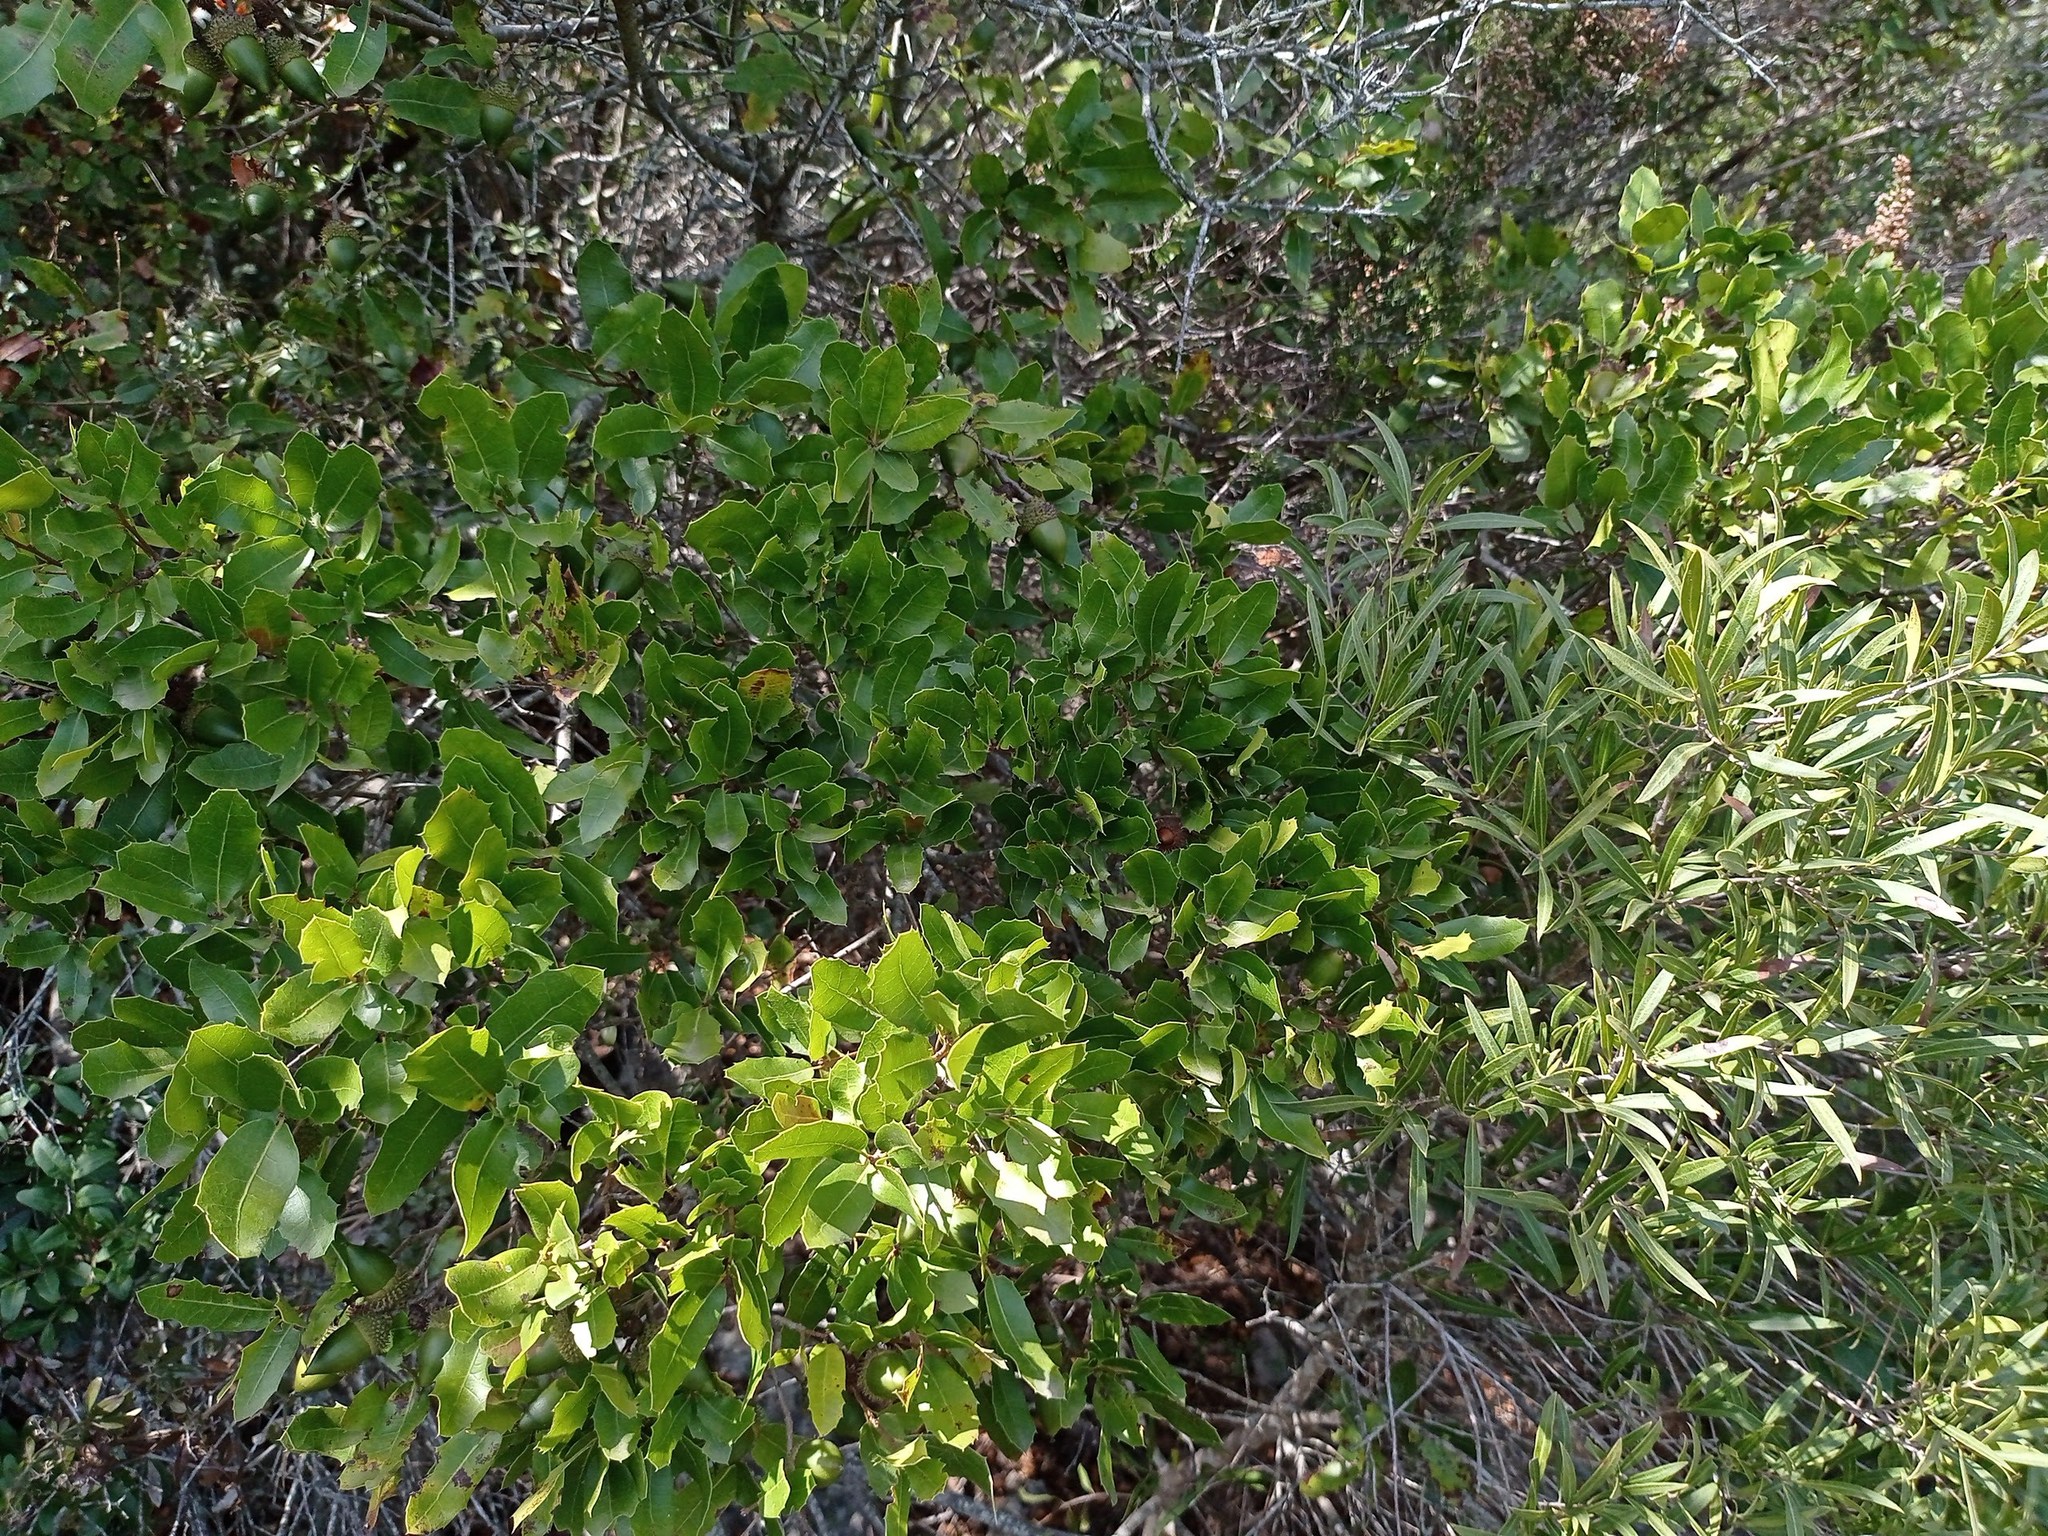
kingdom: Plantae
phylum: Tracheophyta
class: Magnoliopsida
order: Fagales
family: Fagaceae
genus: Quercus
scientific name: Quercus coccifera
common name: Kermes oak
